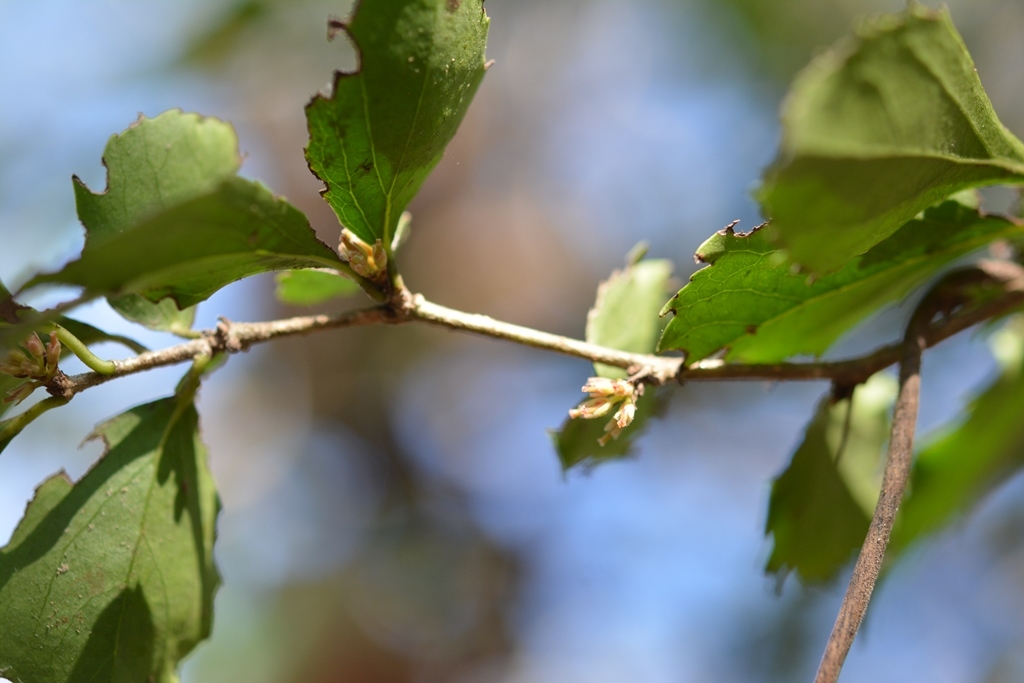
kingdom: Plantae
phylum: Tracheophyta
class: Magnoliopsida
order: Malpighiales
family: Salicaceae
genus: Xylosma
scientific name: Xylosma intermedia
